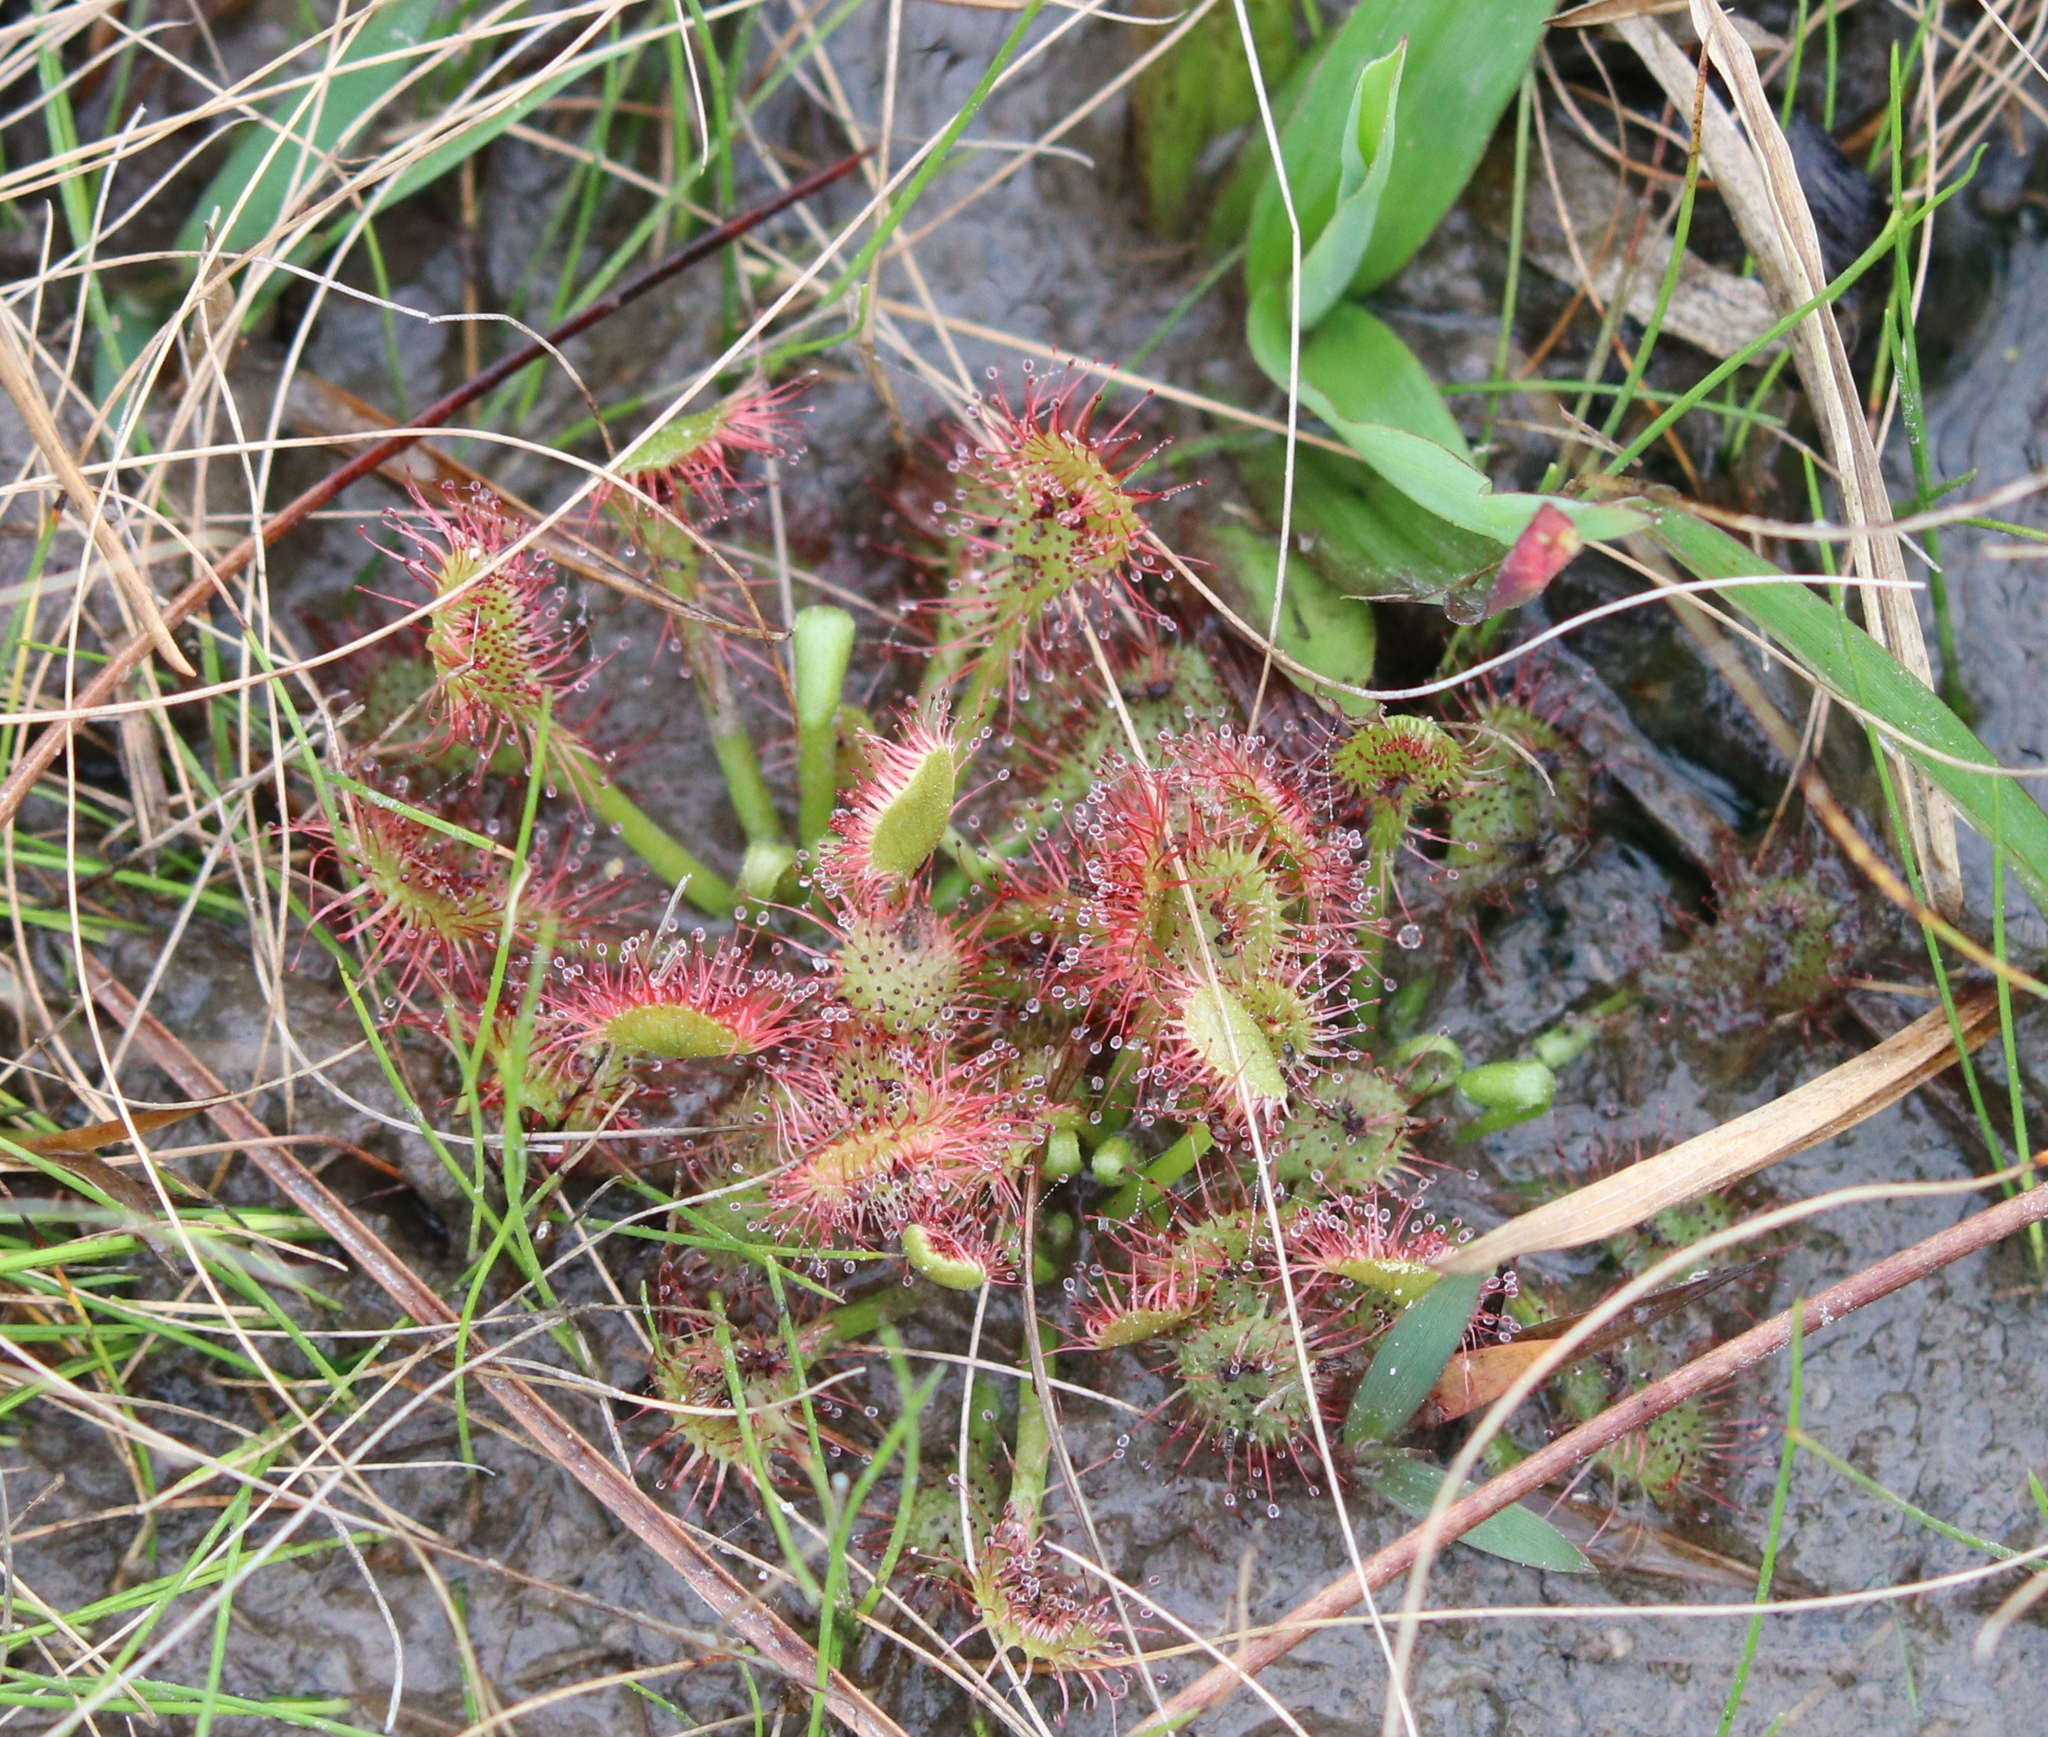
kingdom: Plantae
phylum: Tracheophyta
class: Magnoliopsida
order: Caryophyllales
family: Droseraceae
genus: Drosera
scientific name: Drosera capillaris
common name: Pink sundew
